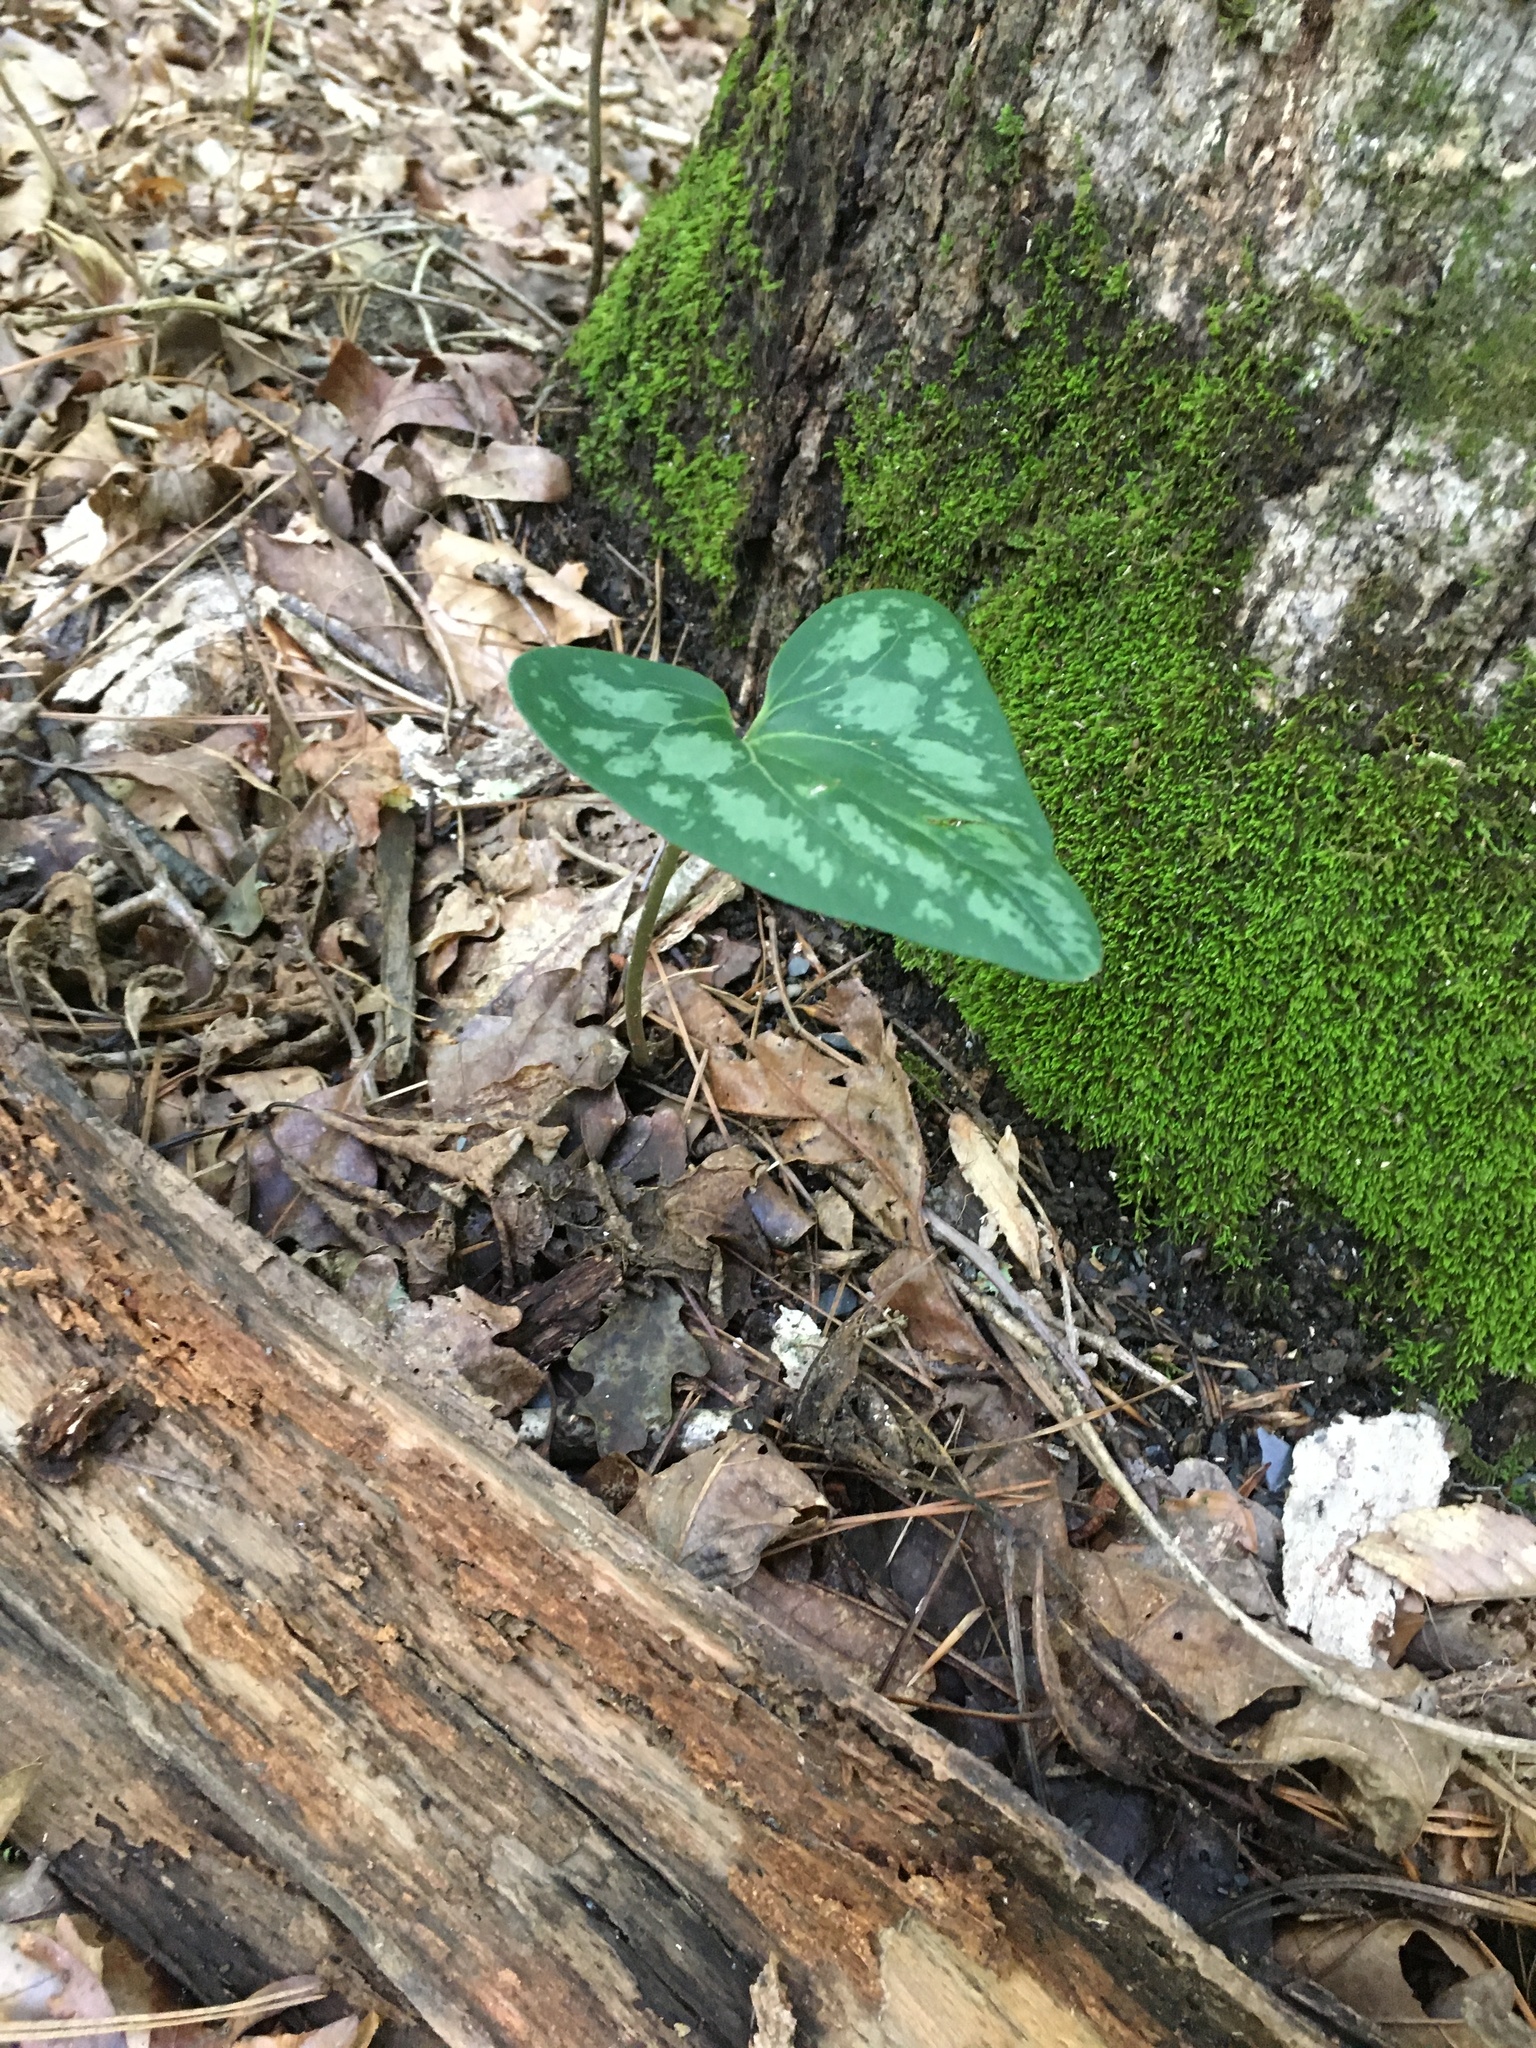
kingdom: Plantae
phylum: Tracheophyta
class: Magnoliopsida
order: Piperales
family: Aristolochiaceae
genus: Hexastylis
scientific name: Hexastylis arifolia
